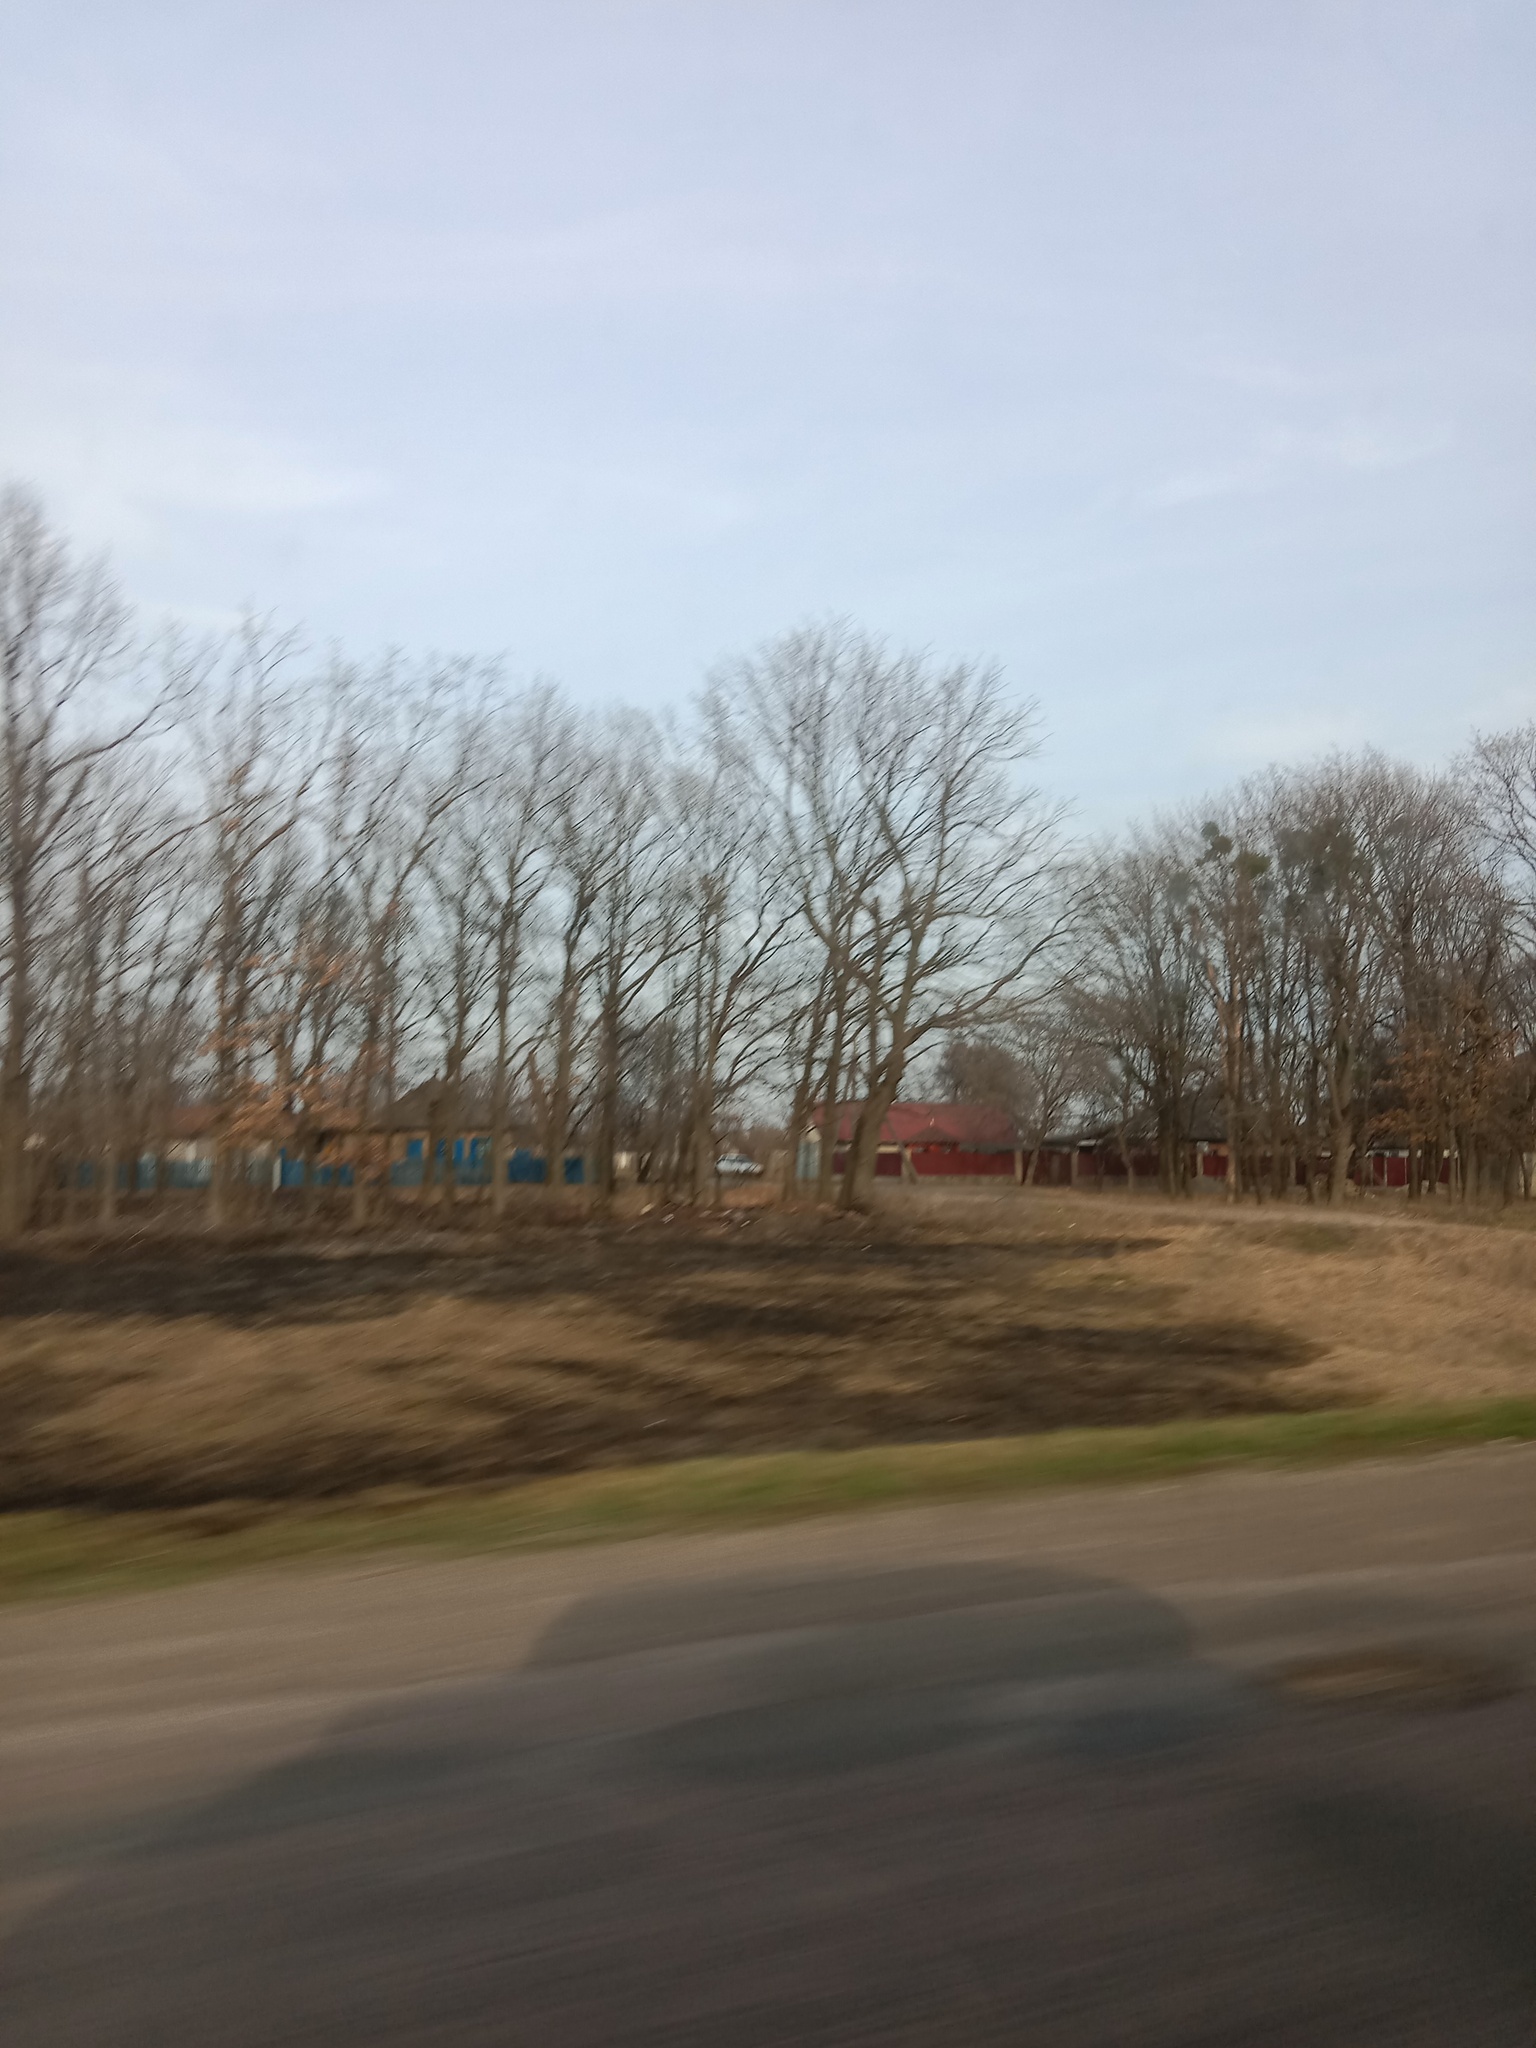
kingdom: Plantae
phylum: Tracheophyta
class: Magnoliopsida
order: Santalales
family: Viscaceae
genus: Viscum
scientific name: Viscum album
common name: Mistletoe
